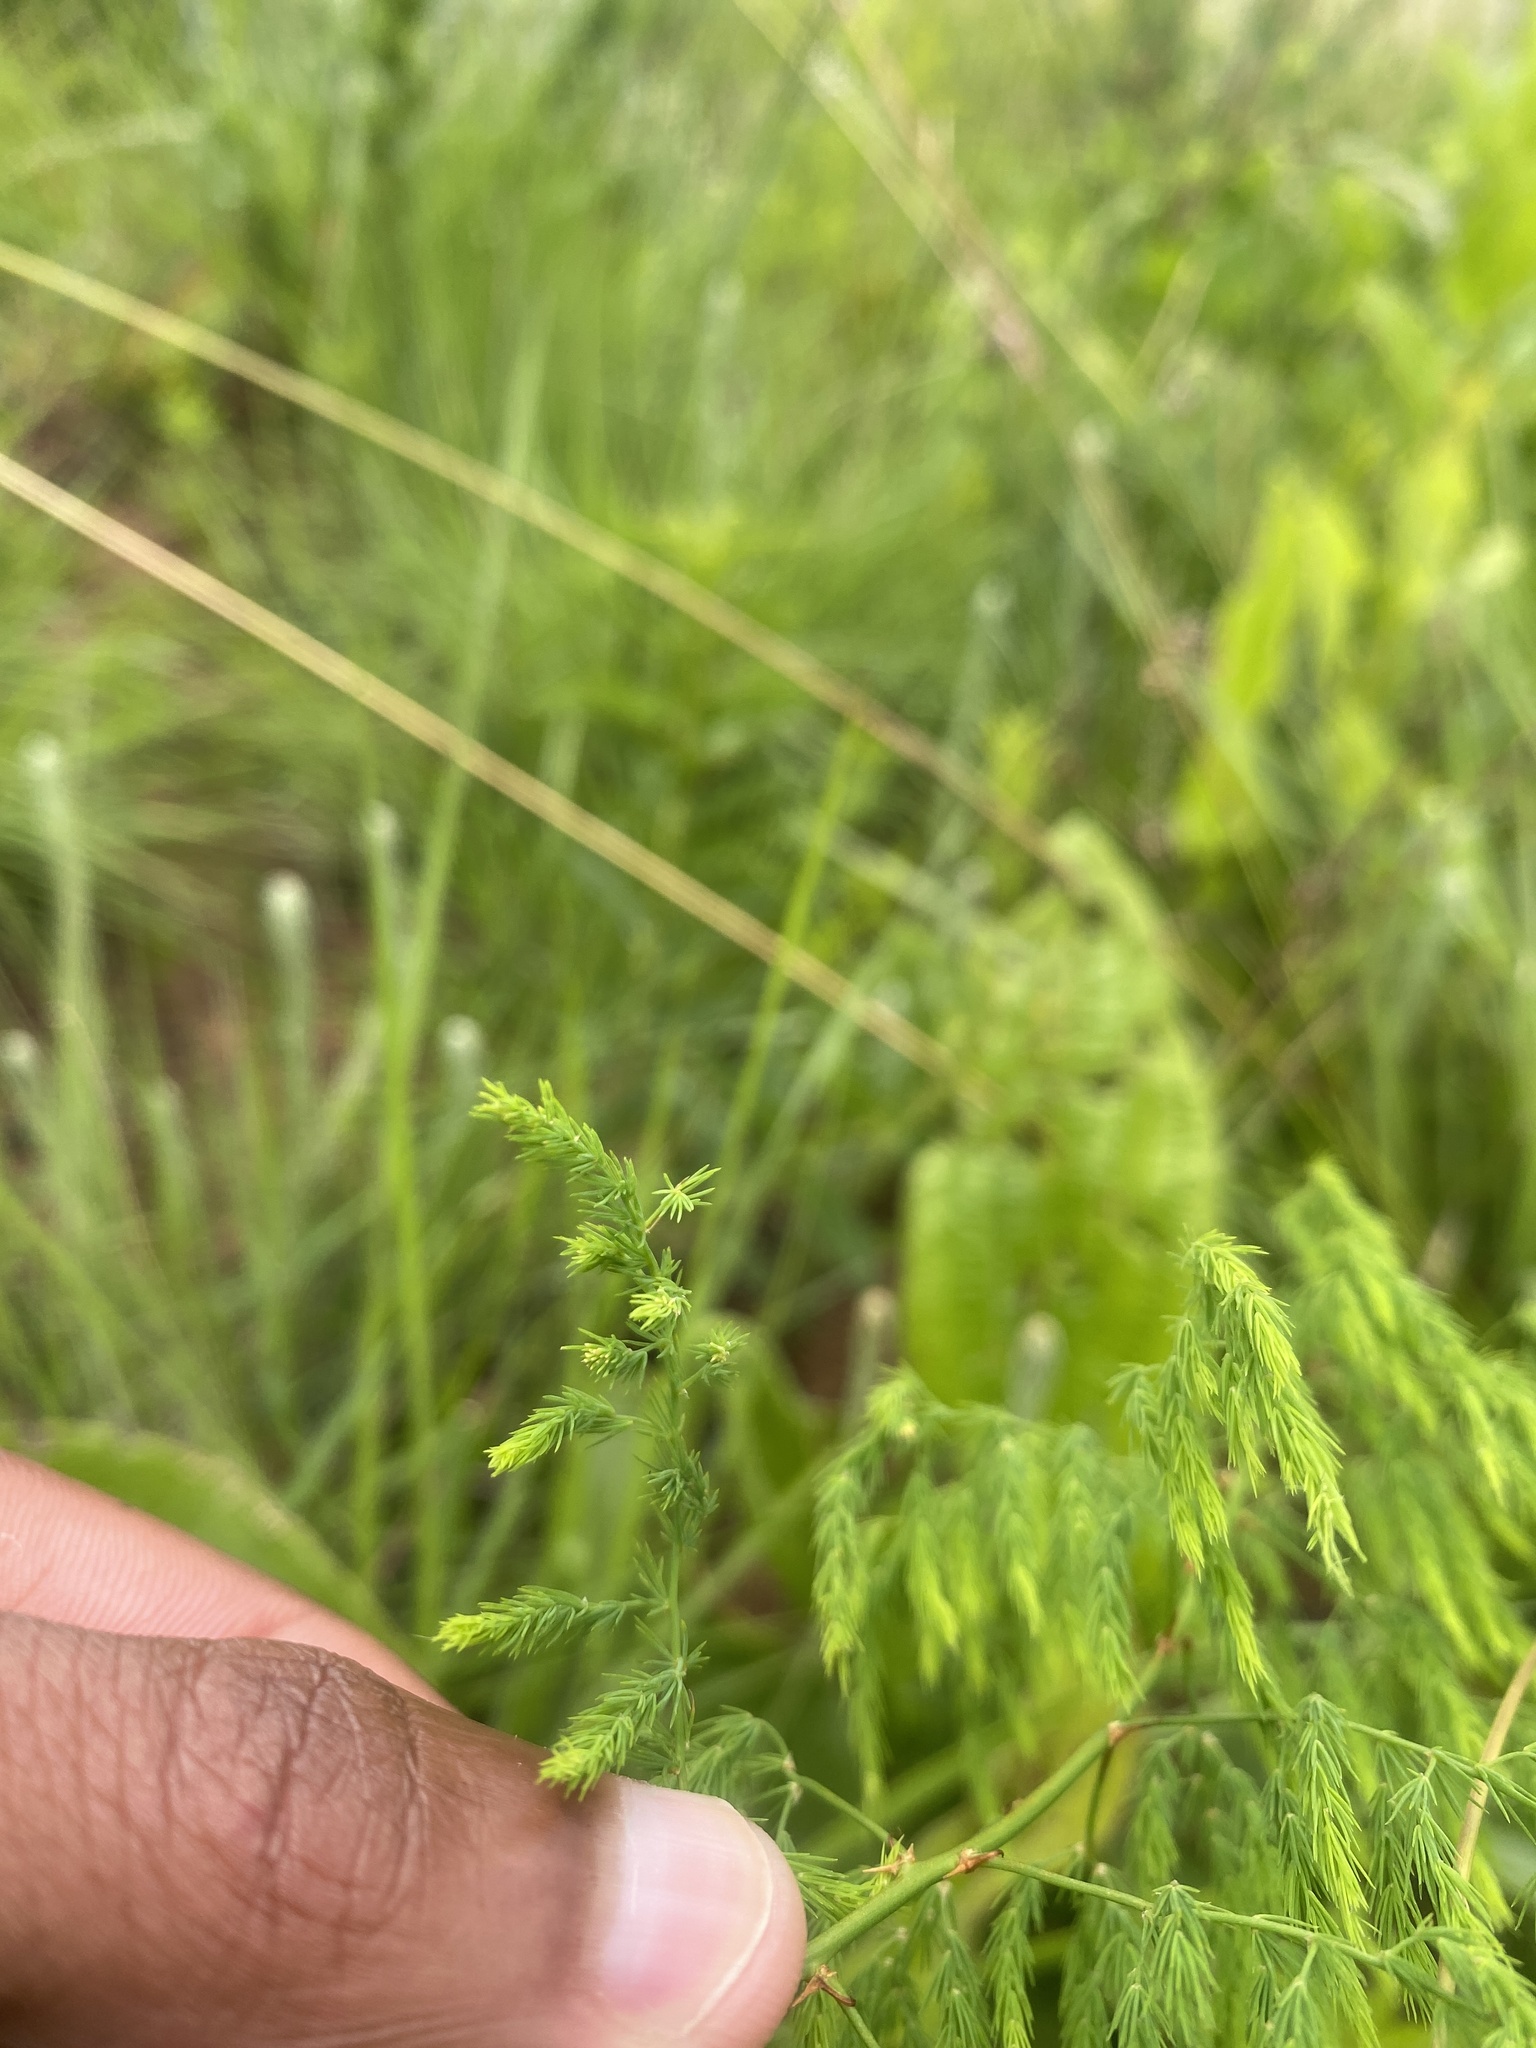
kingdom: Plantae
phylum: Tracheophyta
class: Liliopsida
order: Asparagales
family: Asparagaceae
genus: Asparagus
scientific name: Asparagus edulis
